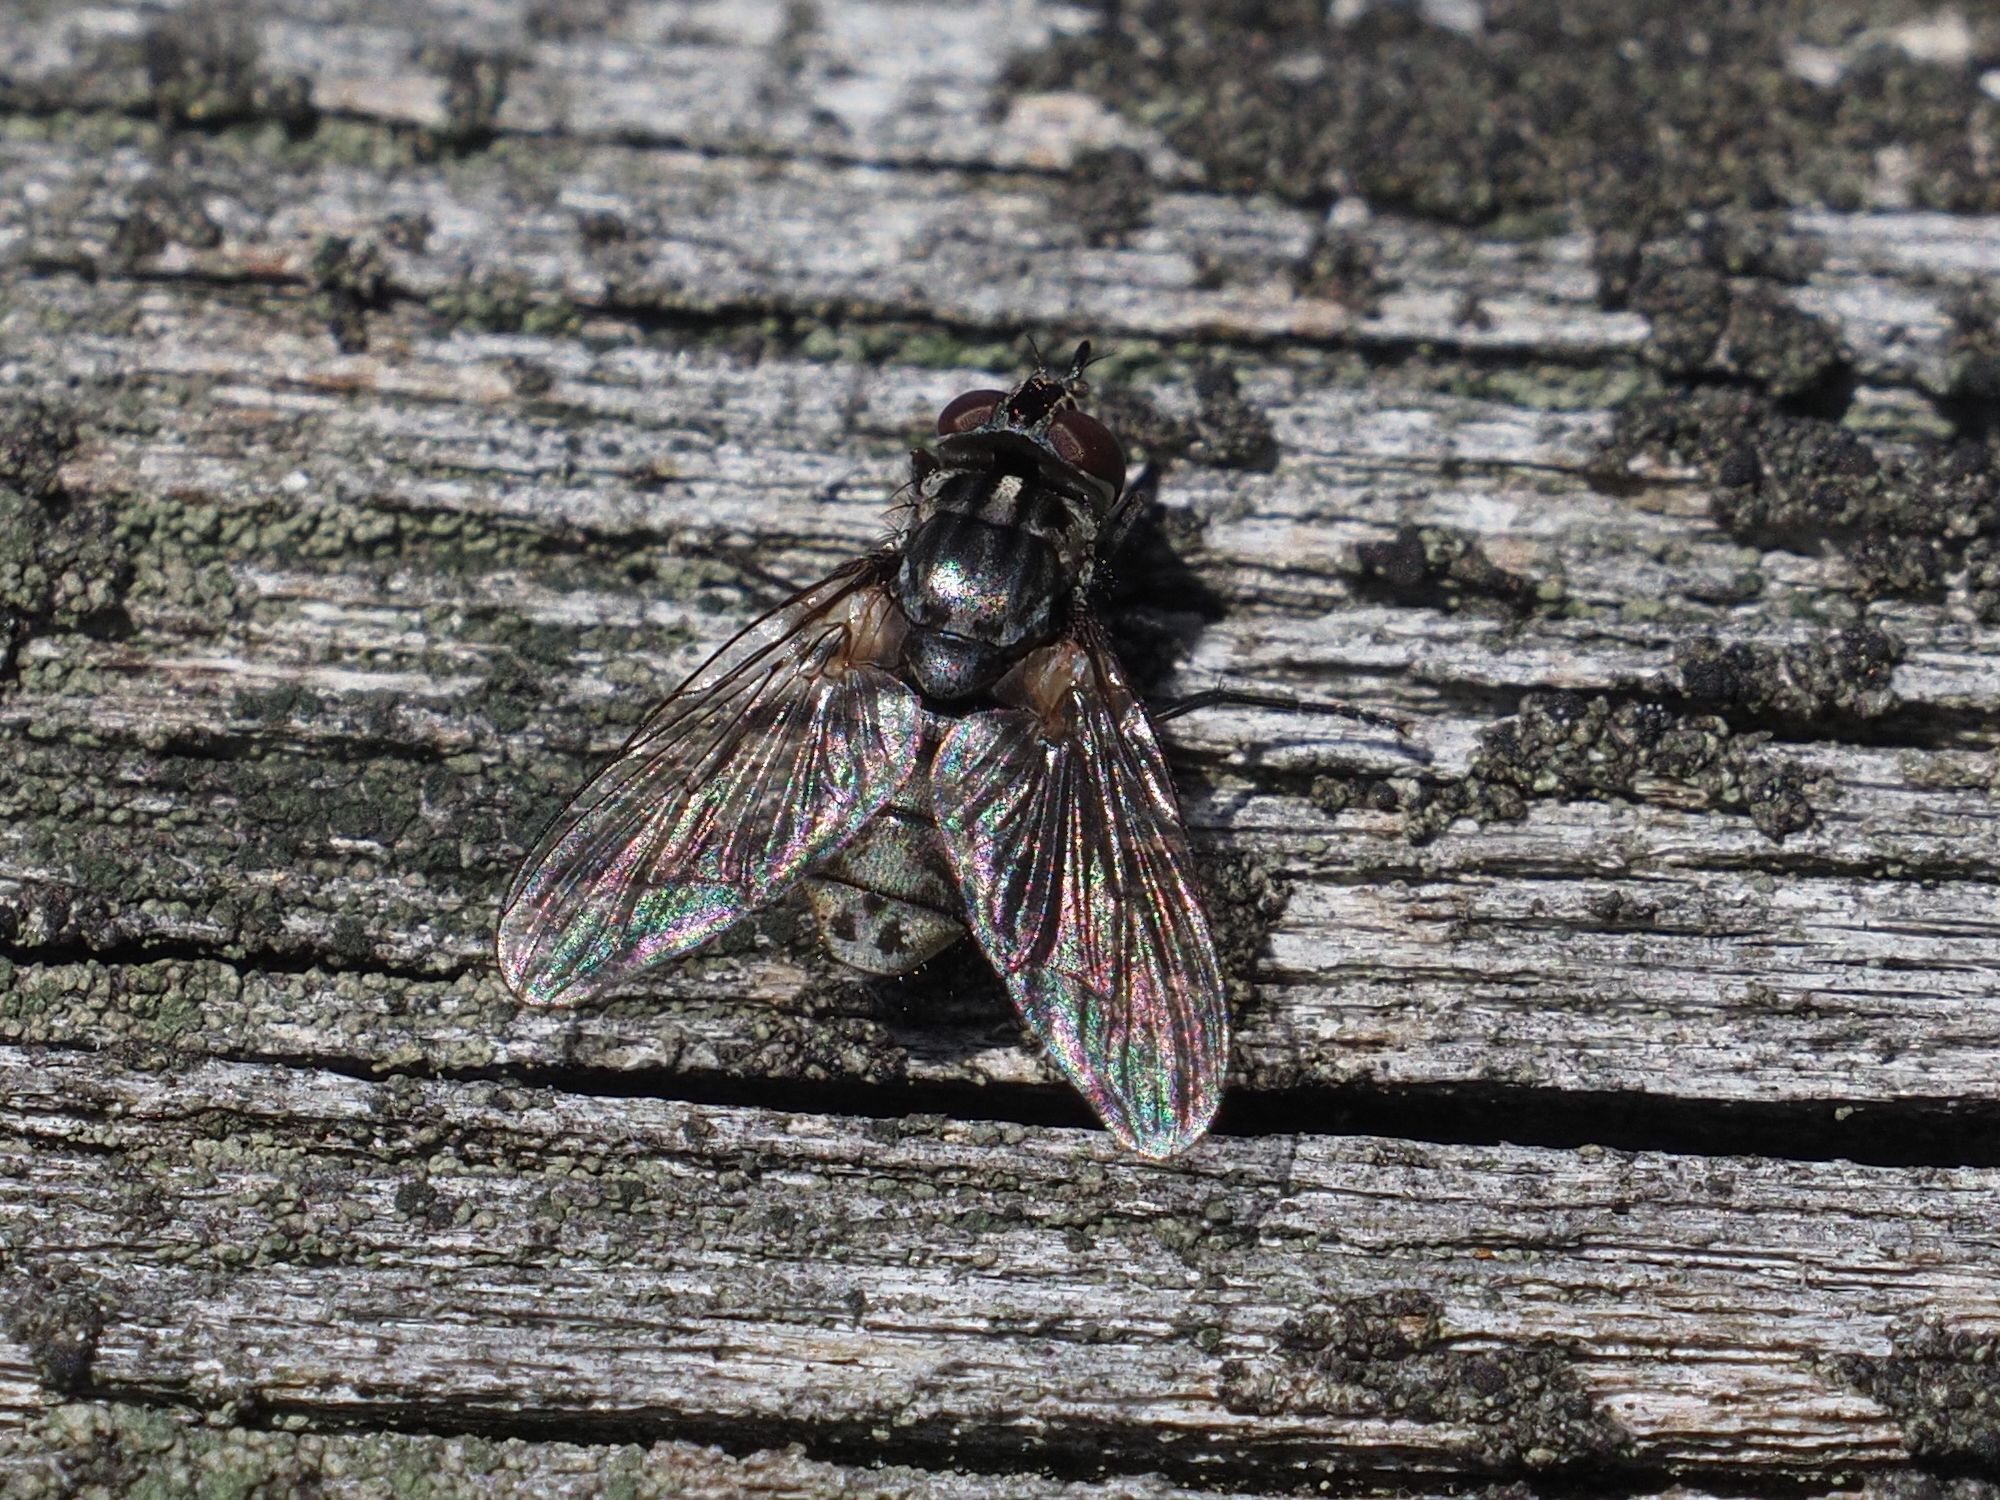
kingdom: Animalia
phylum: Arthropoda
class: Insecta
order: Diptera
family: Muscidae
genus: Stomoxys
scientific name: Stomoxys calcitrans
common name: Stable fly
